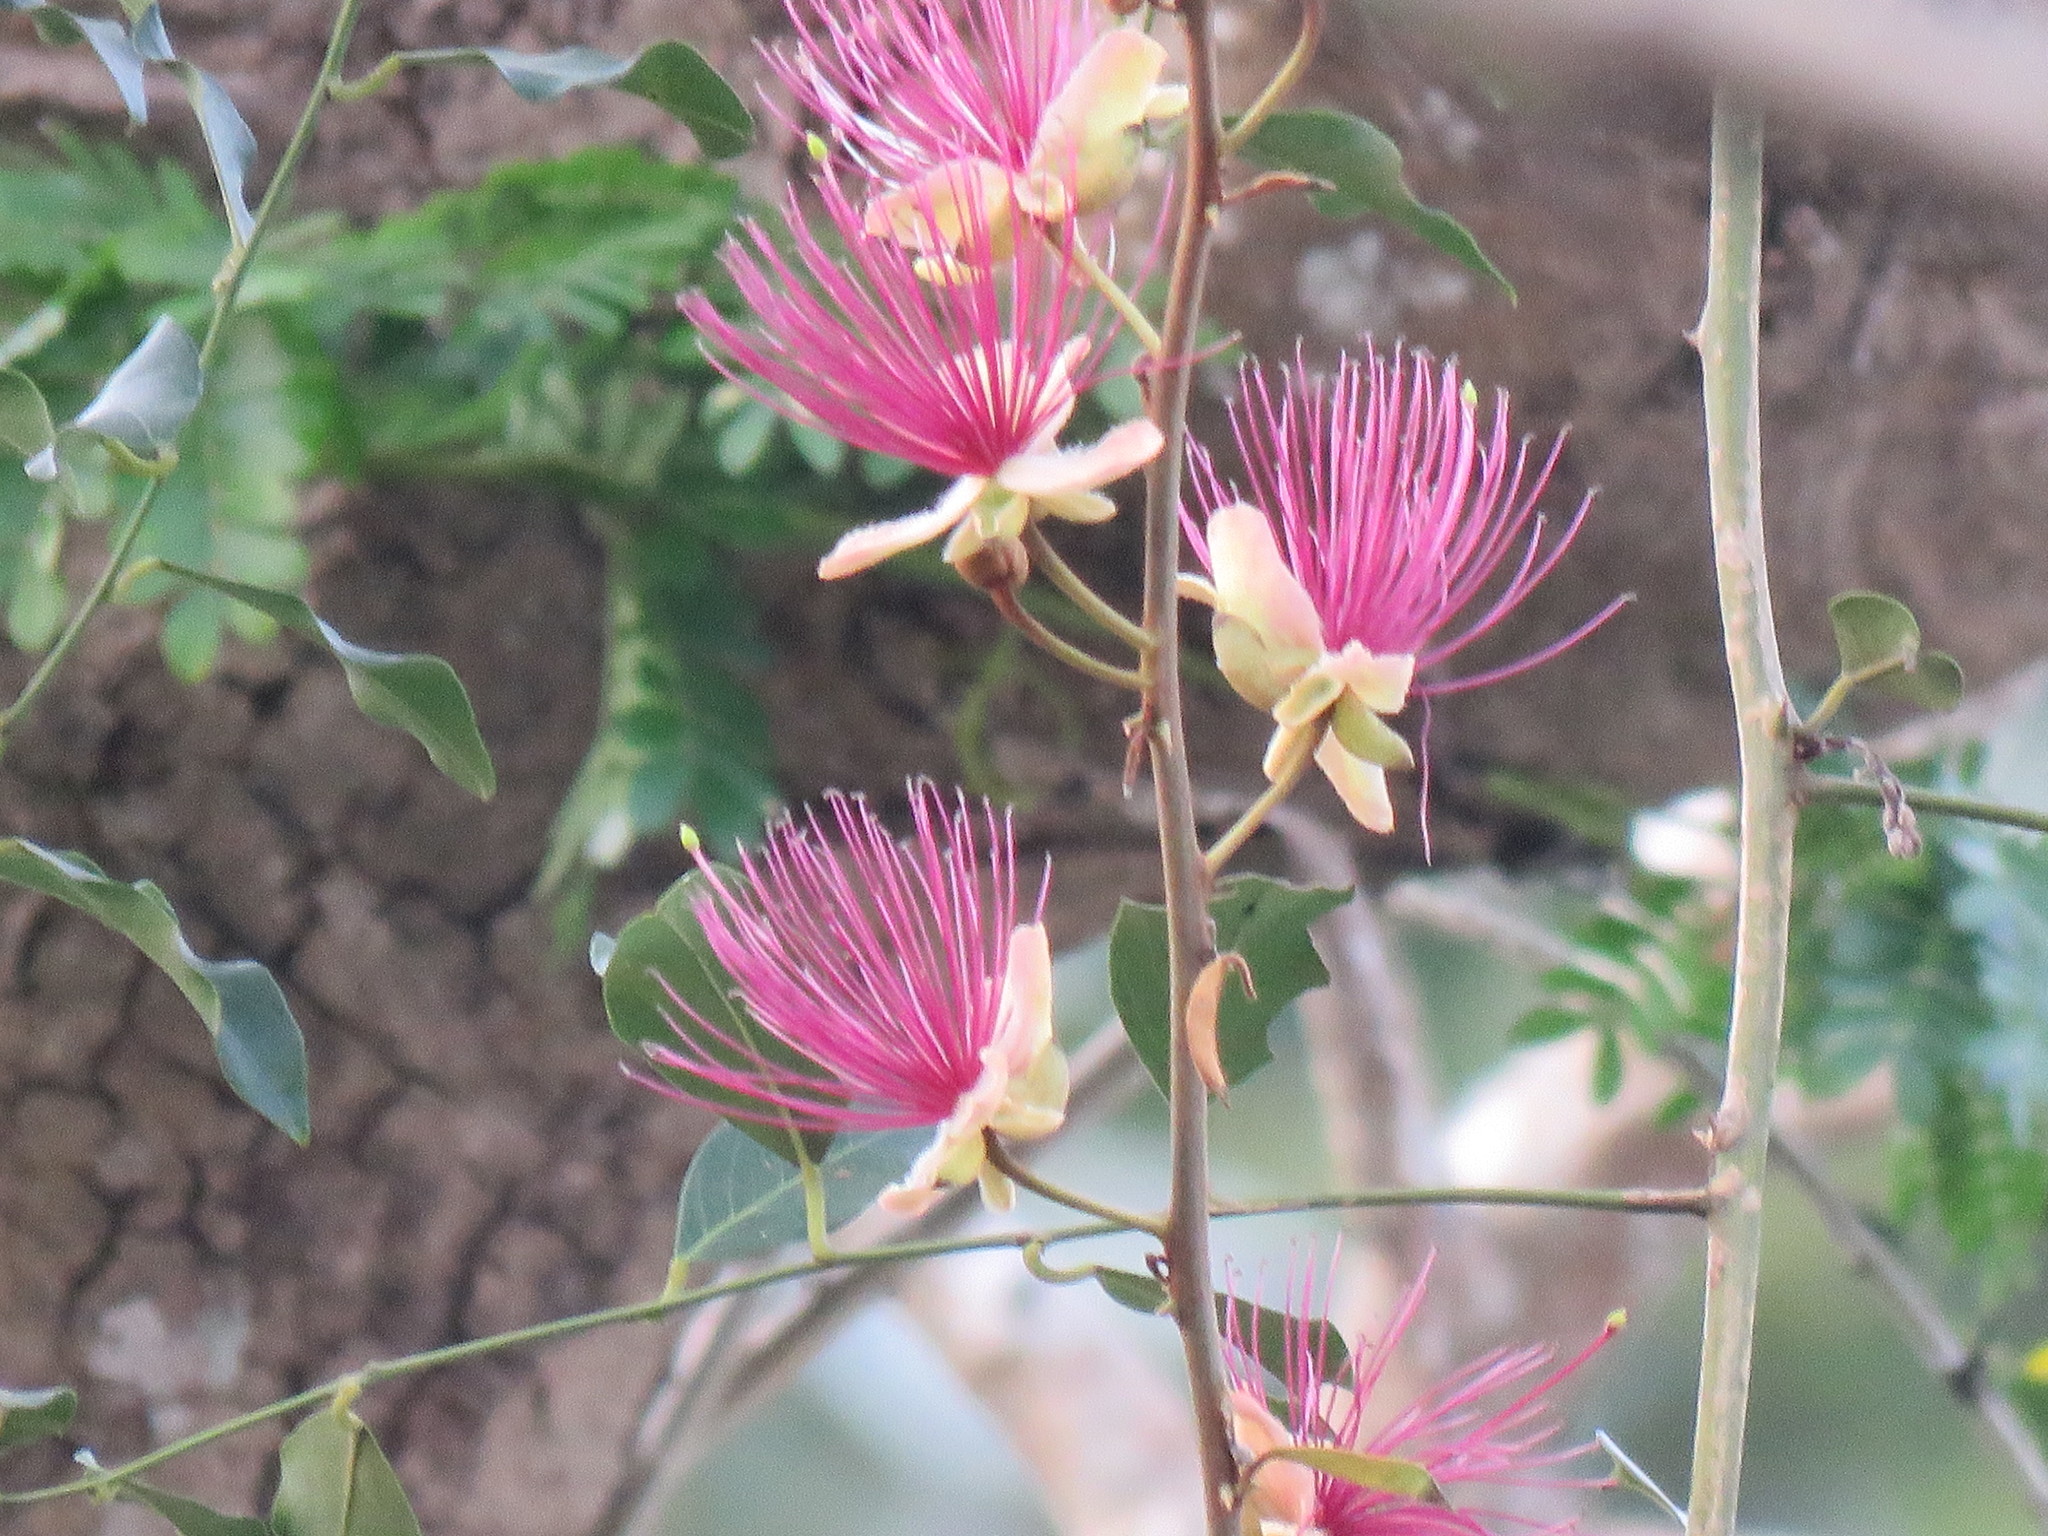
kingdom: Plantae
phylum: Tracheophyta
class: Magnoliopsida
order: Brassicales
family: Capparaceae
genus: Capparis
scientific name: Capparis zeylanica
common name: Ceylon caper
